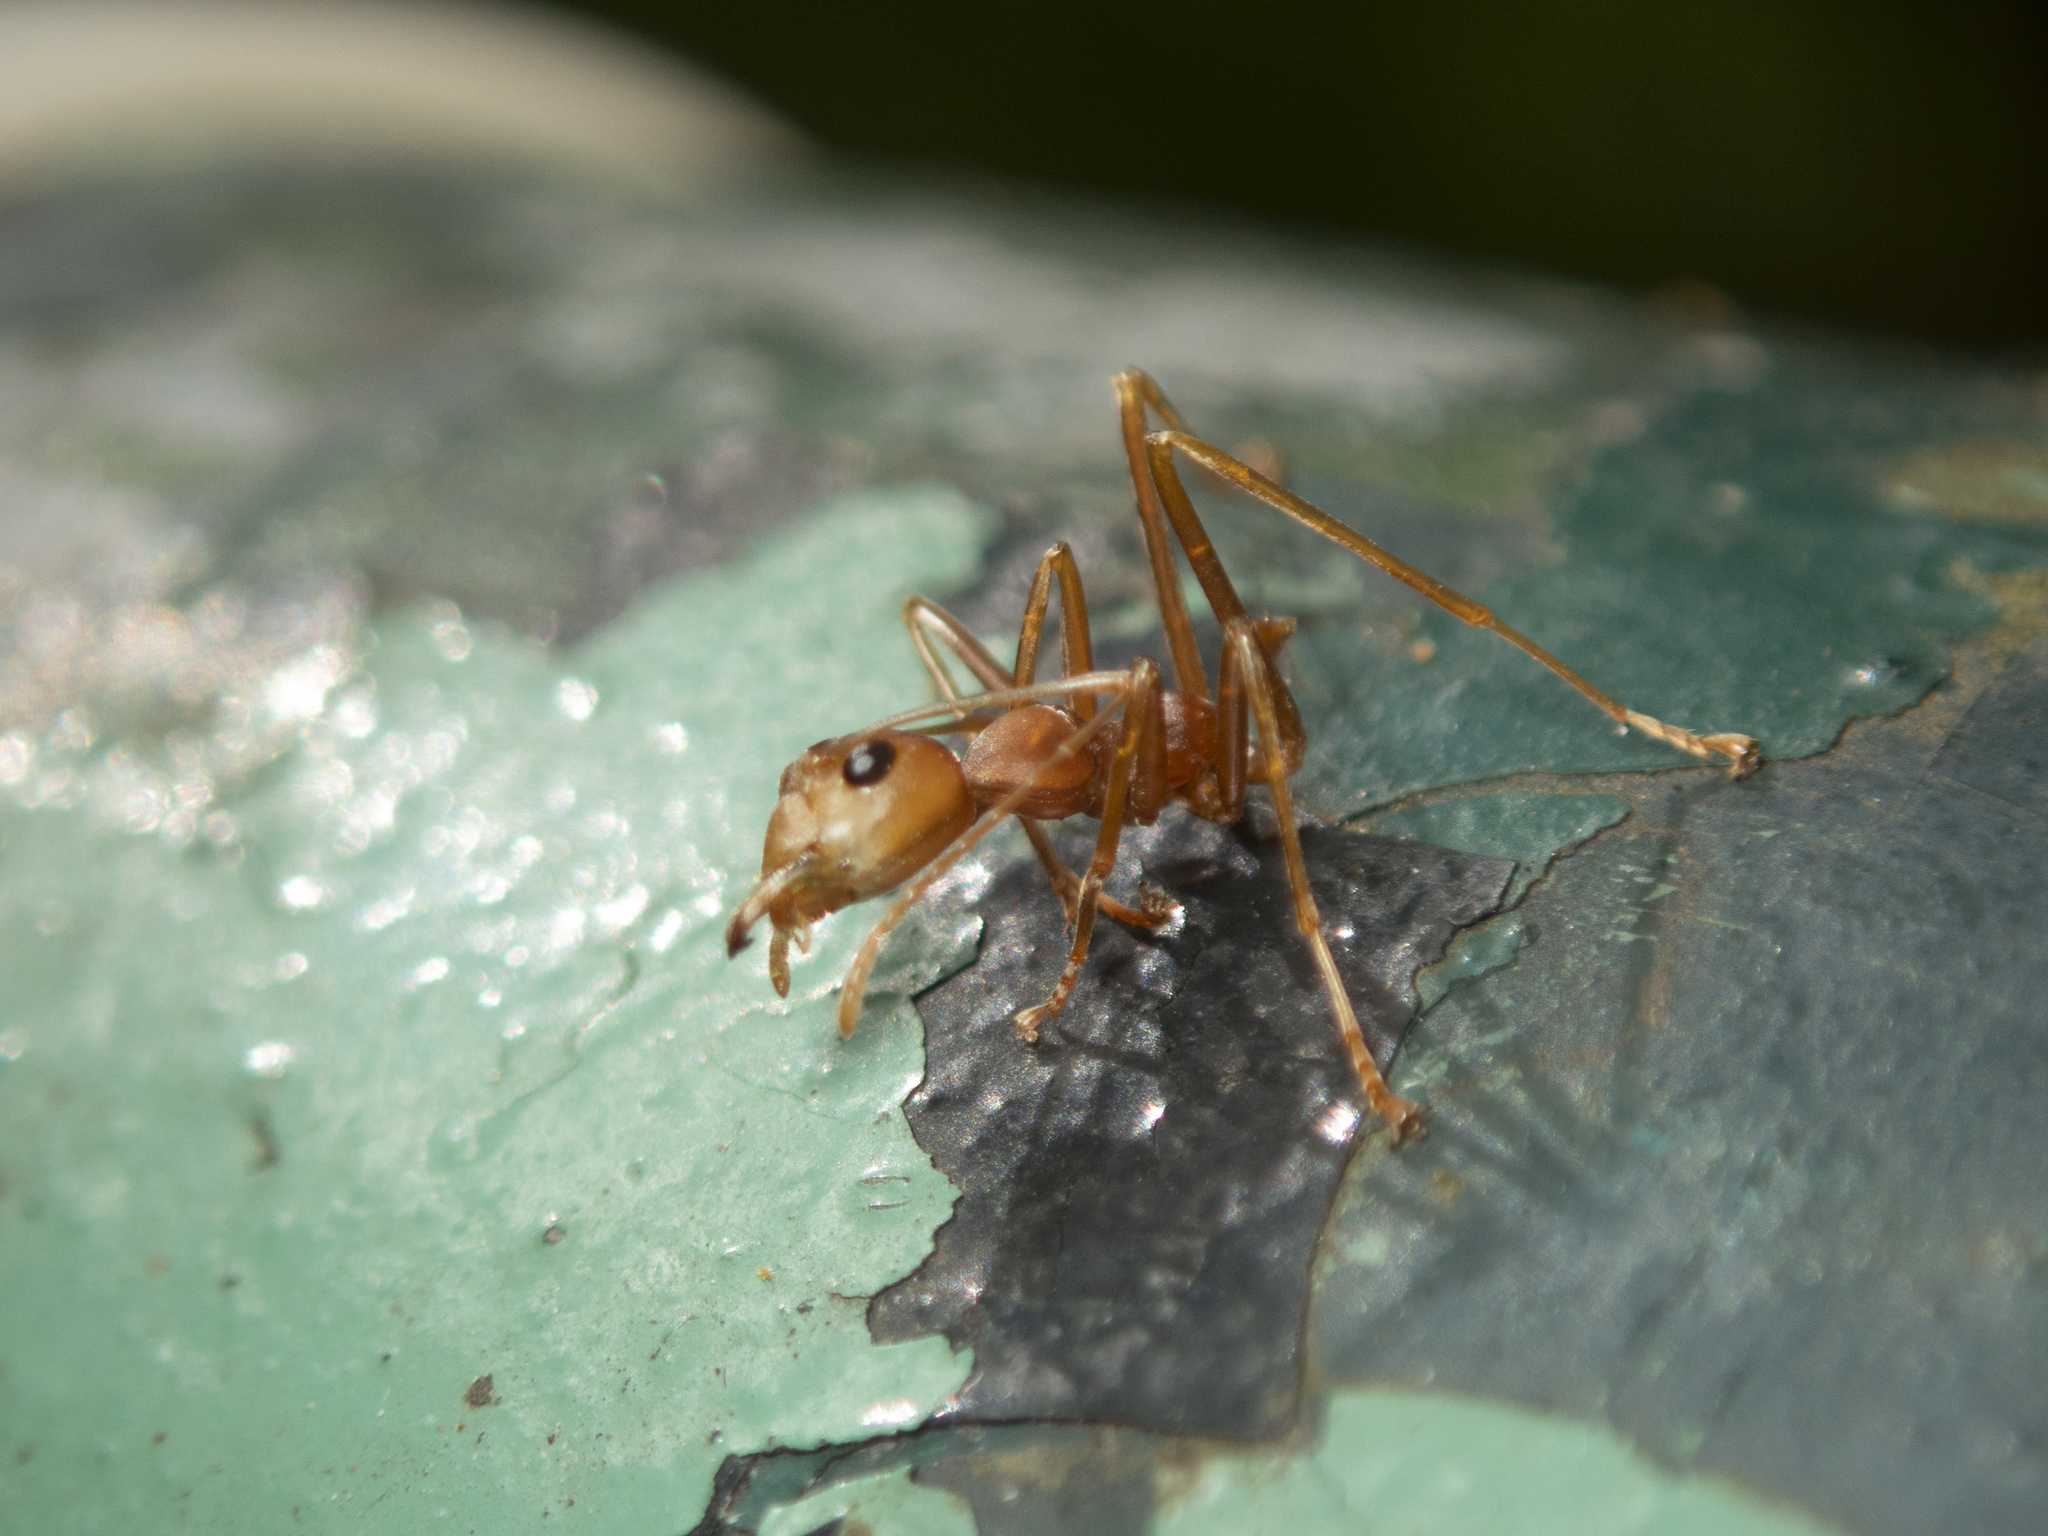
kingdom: Animalia
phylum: Arthropoda
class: Insecta
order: Hymenoptera
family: Formicidae
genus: Oecophylla
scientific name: Oecophylla smaragdina
